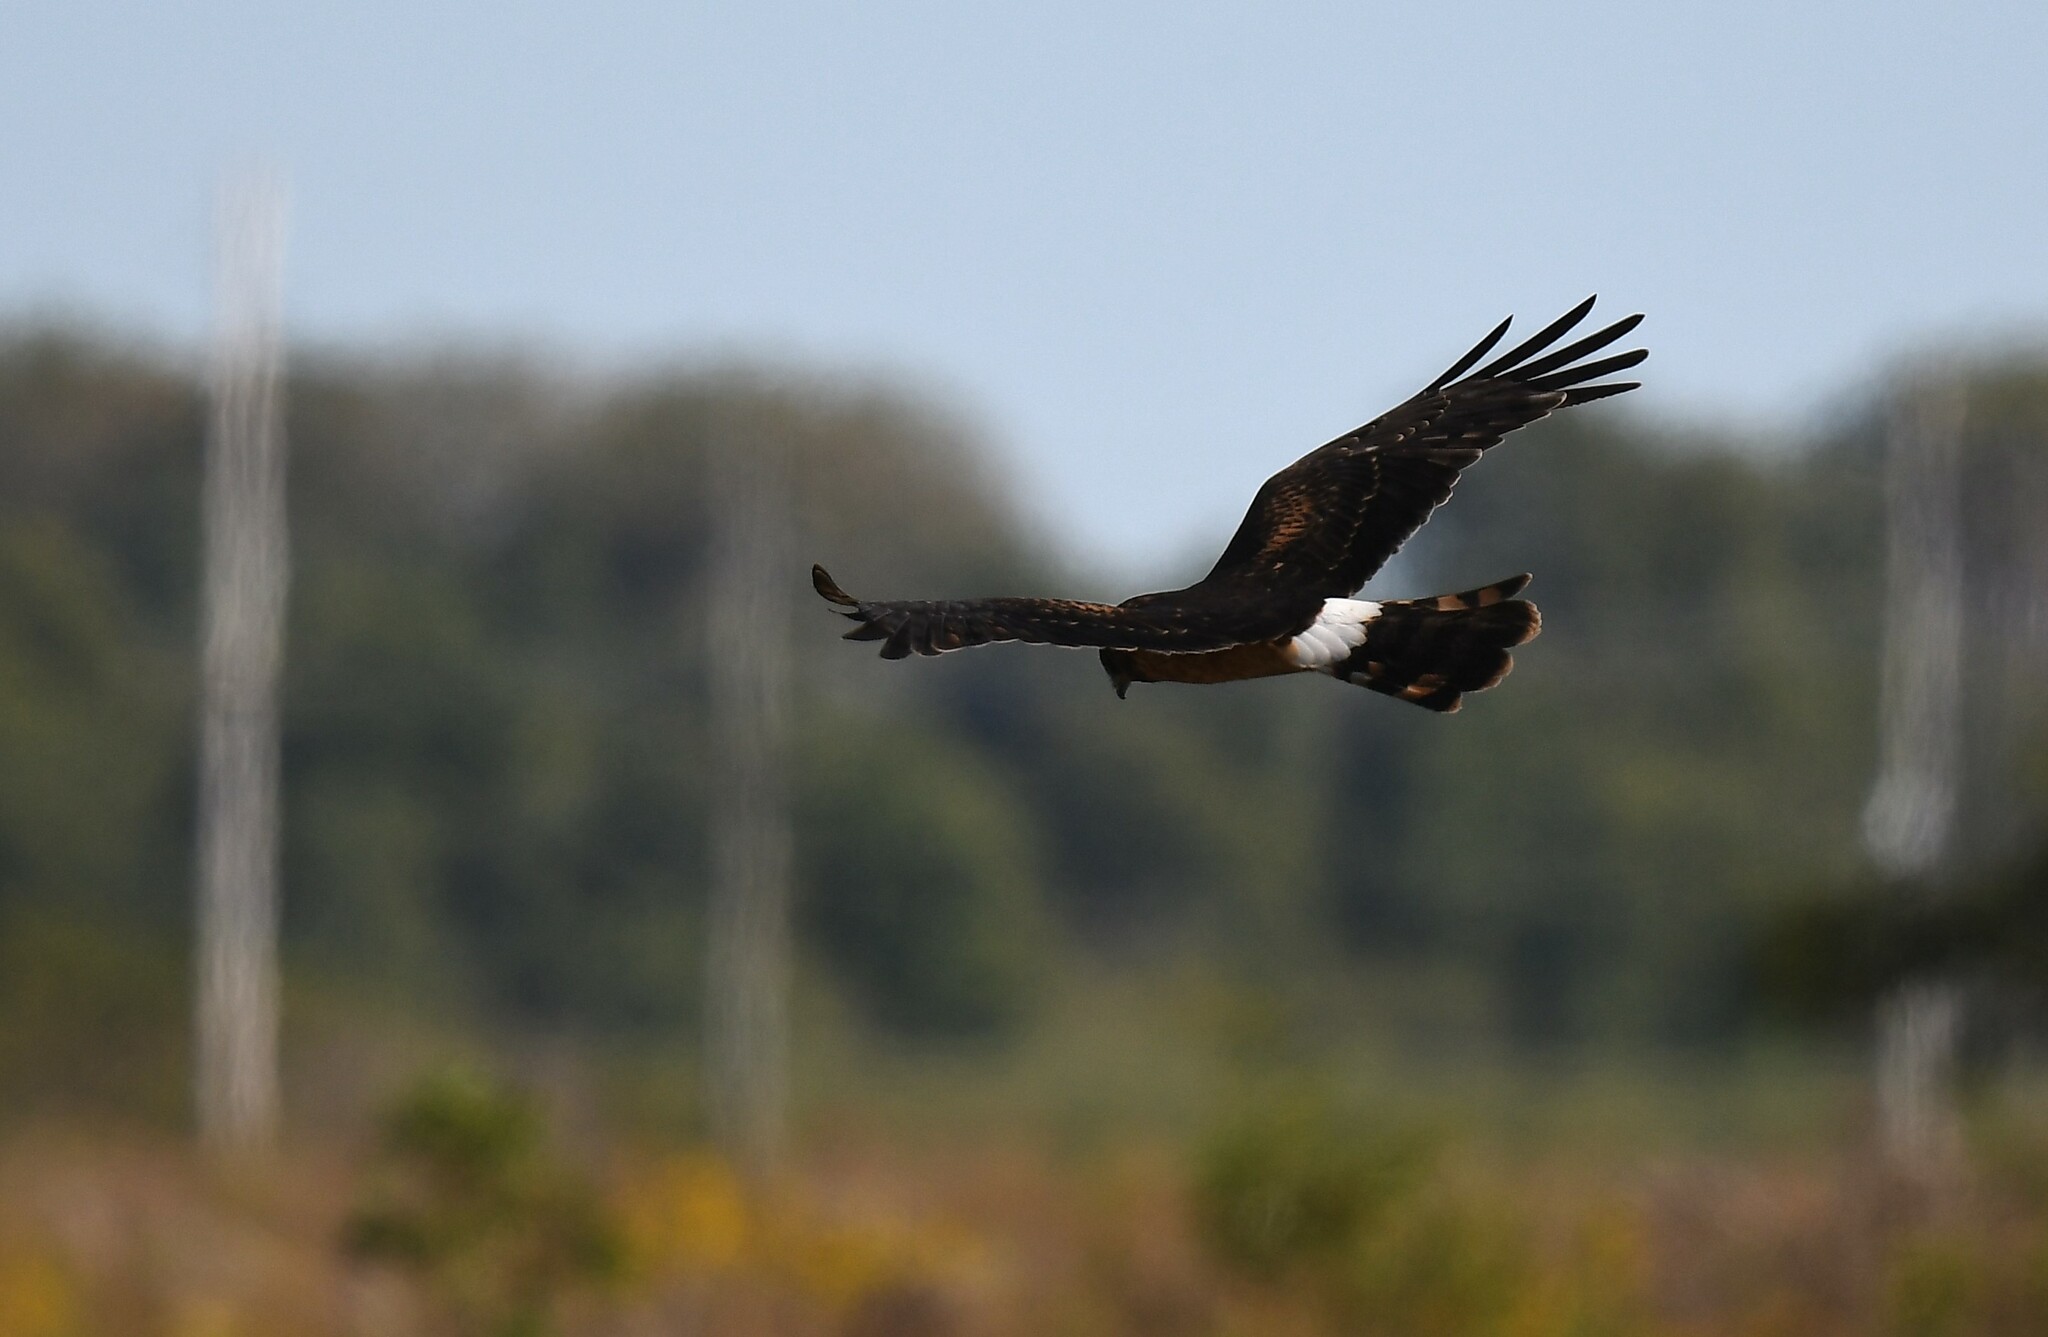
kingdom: Animalia
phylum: Chordata
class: Aves
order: Accipitriformes
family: Accipitridae
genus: Circus
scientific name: Circus cyaneus
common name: Hen harrier
